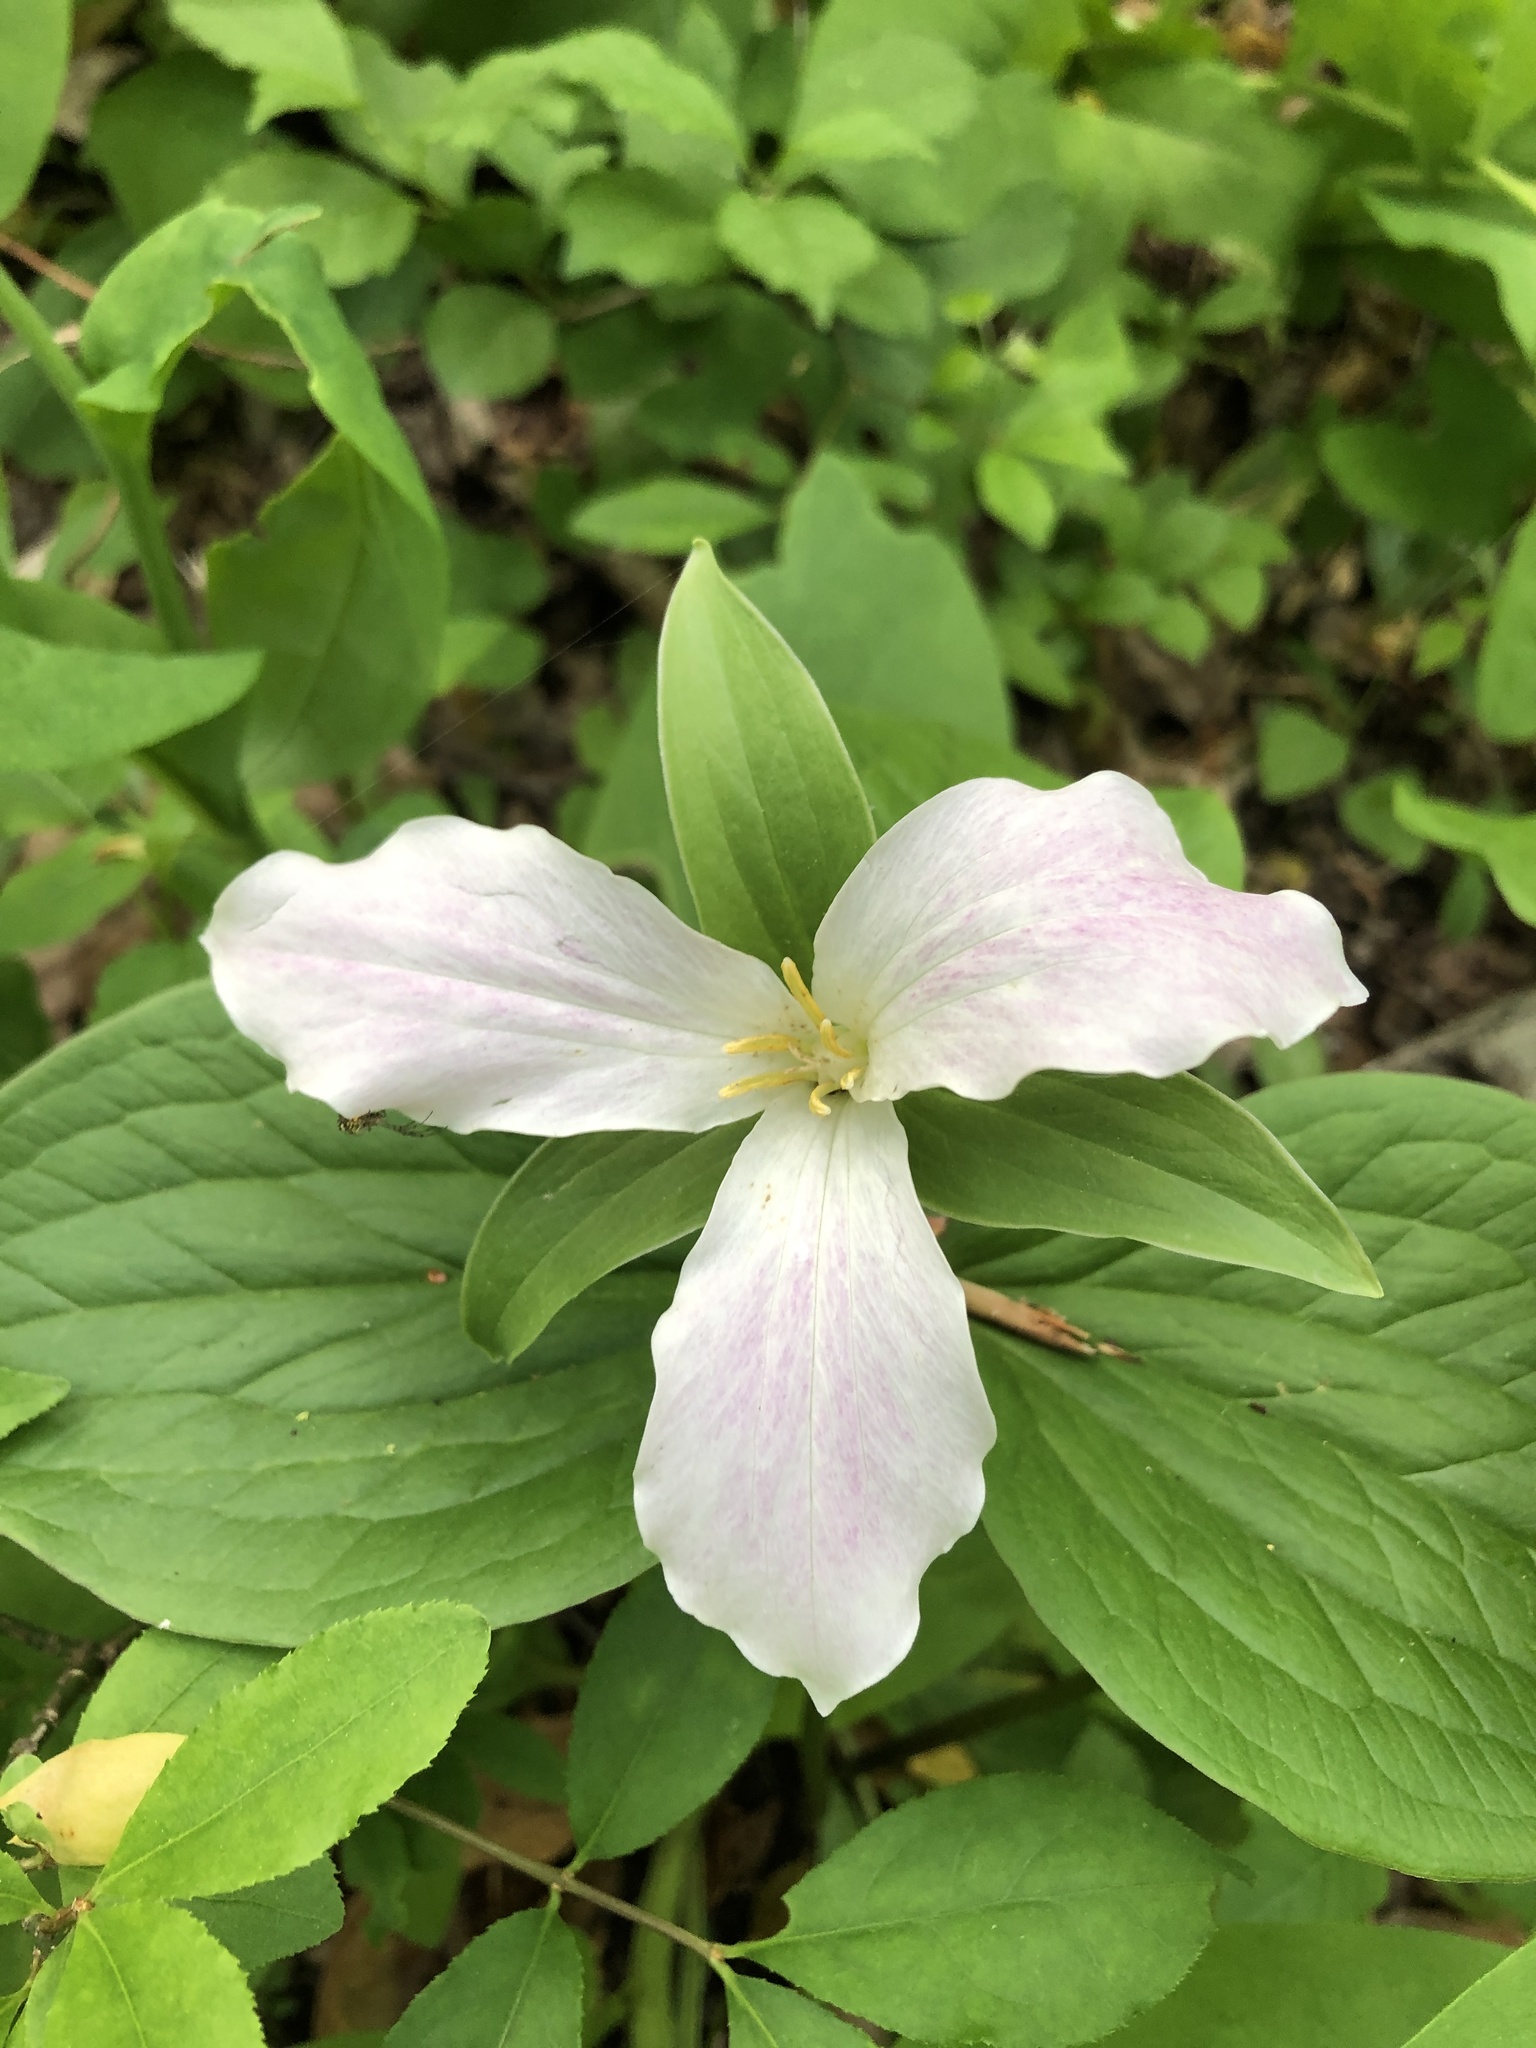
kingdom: Plantae
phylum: Tracheophyta
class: Liliopsida
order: Liliales
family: Melanthiaceae
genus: Trillium
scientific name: Trillium grandiflorum
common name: Great white trillium
